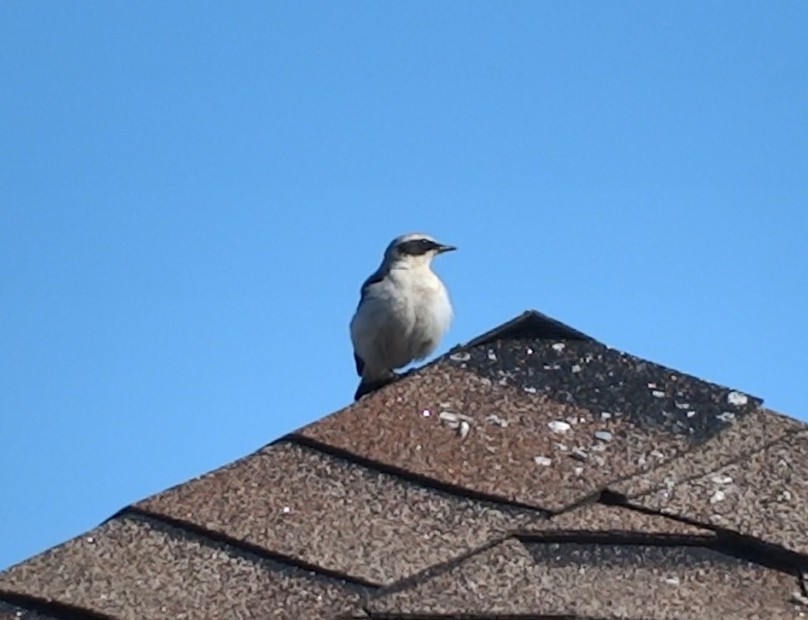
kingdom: Animalia
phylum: Chordata
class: Aves
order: Passeriformes
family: Muscicapidae
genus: Oenanthe
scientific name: Oenanthe oenanthe
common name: Northern wheatear
